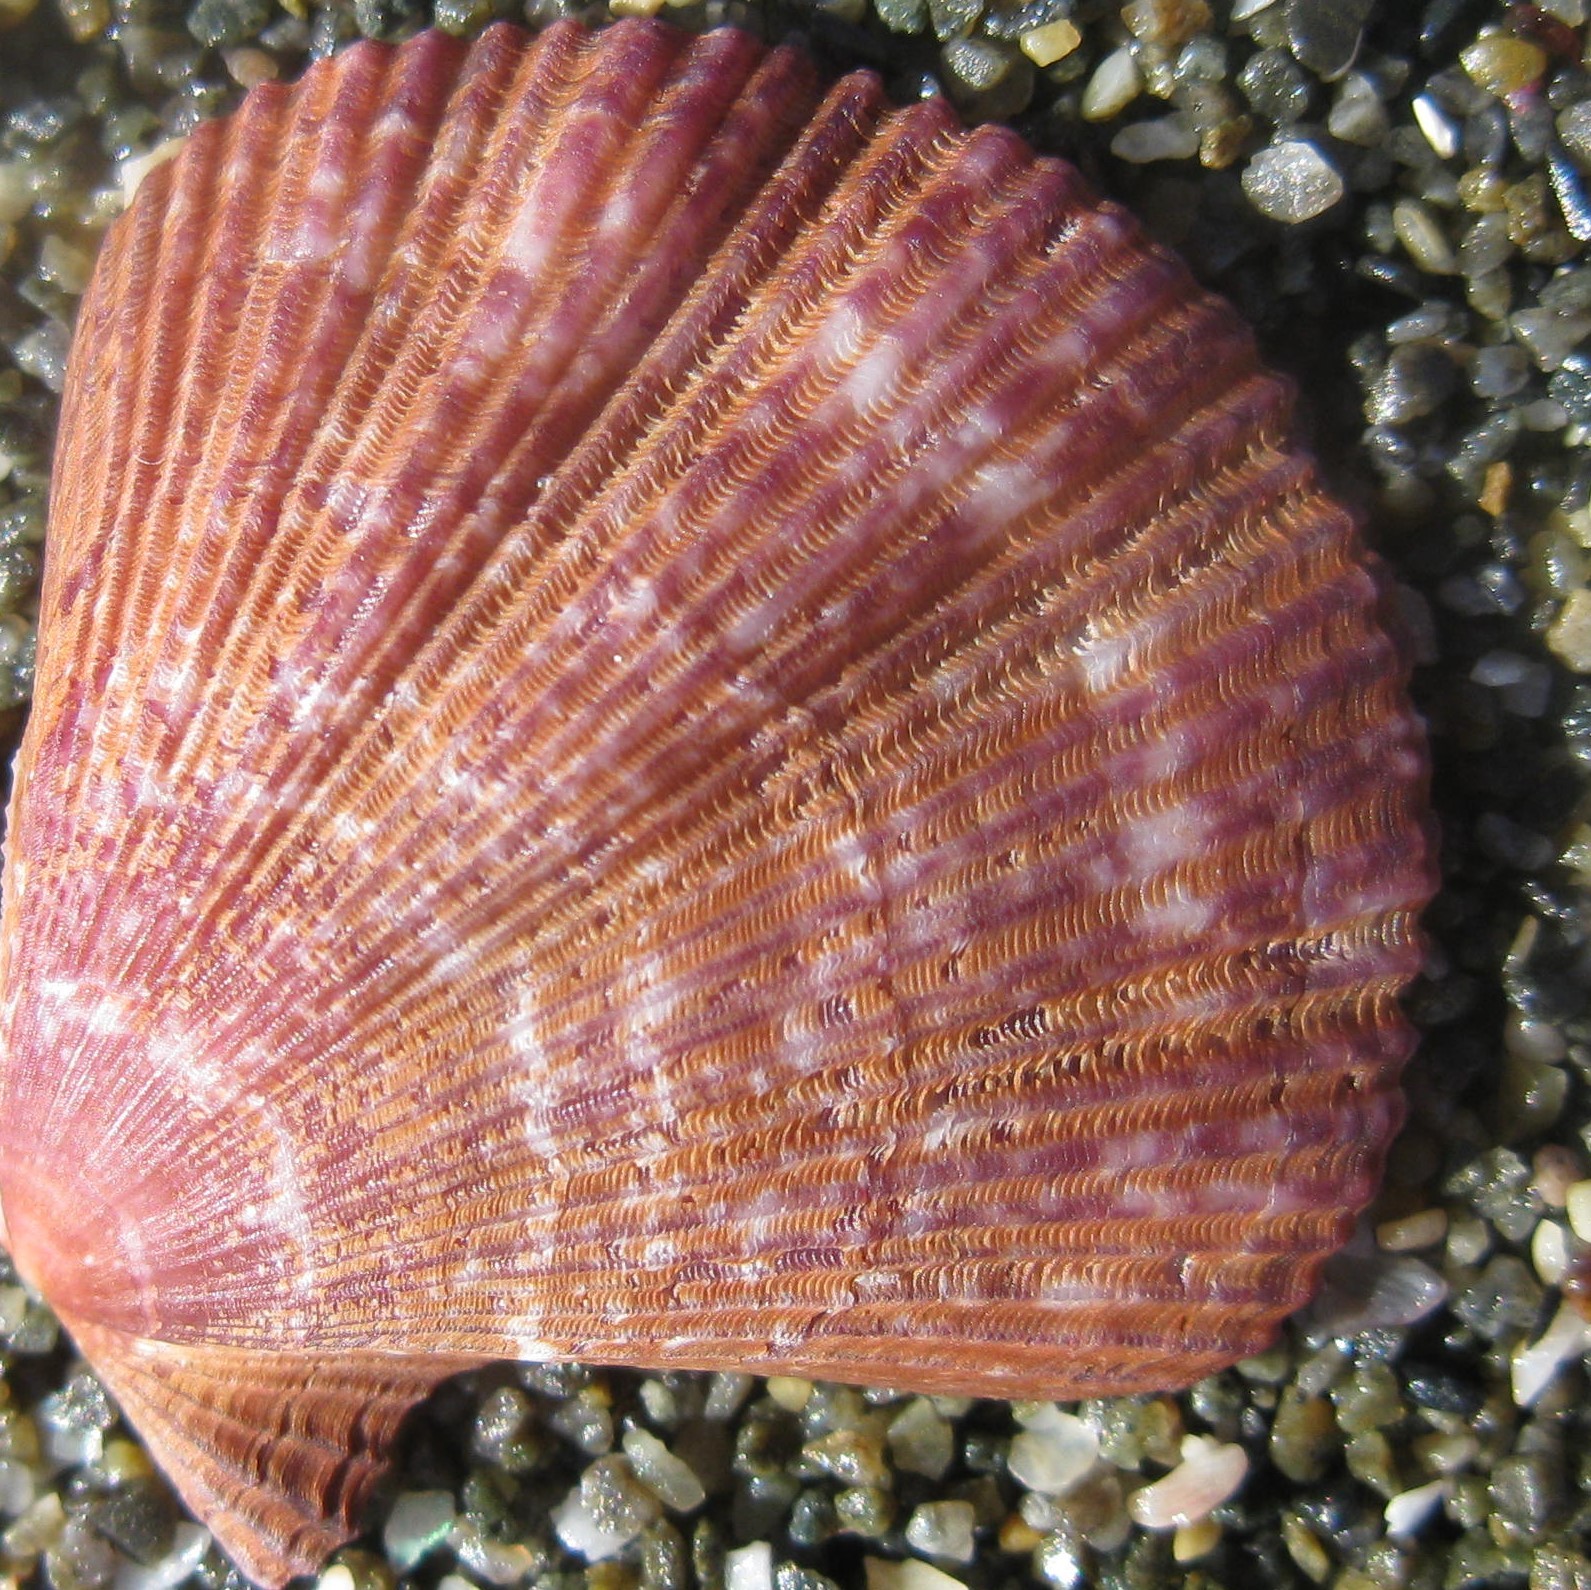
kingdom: Animalia
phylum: Mollusca
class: Bivalvia
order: Pectinida
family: Pectinidae
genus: Mesopeplum
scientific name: Mesopeplum convexum
